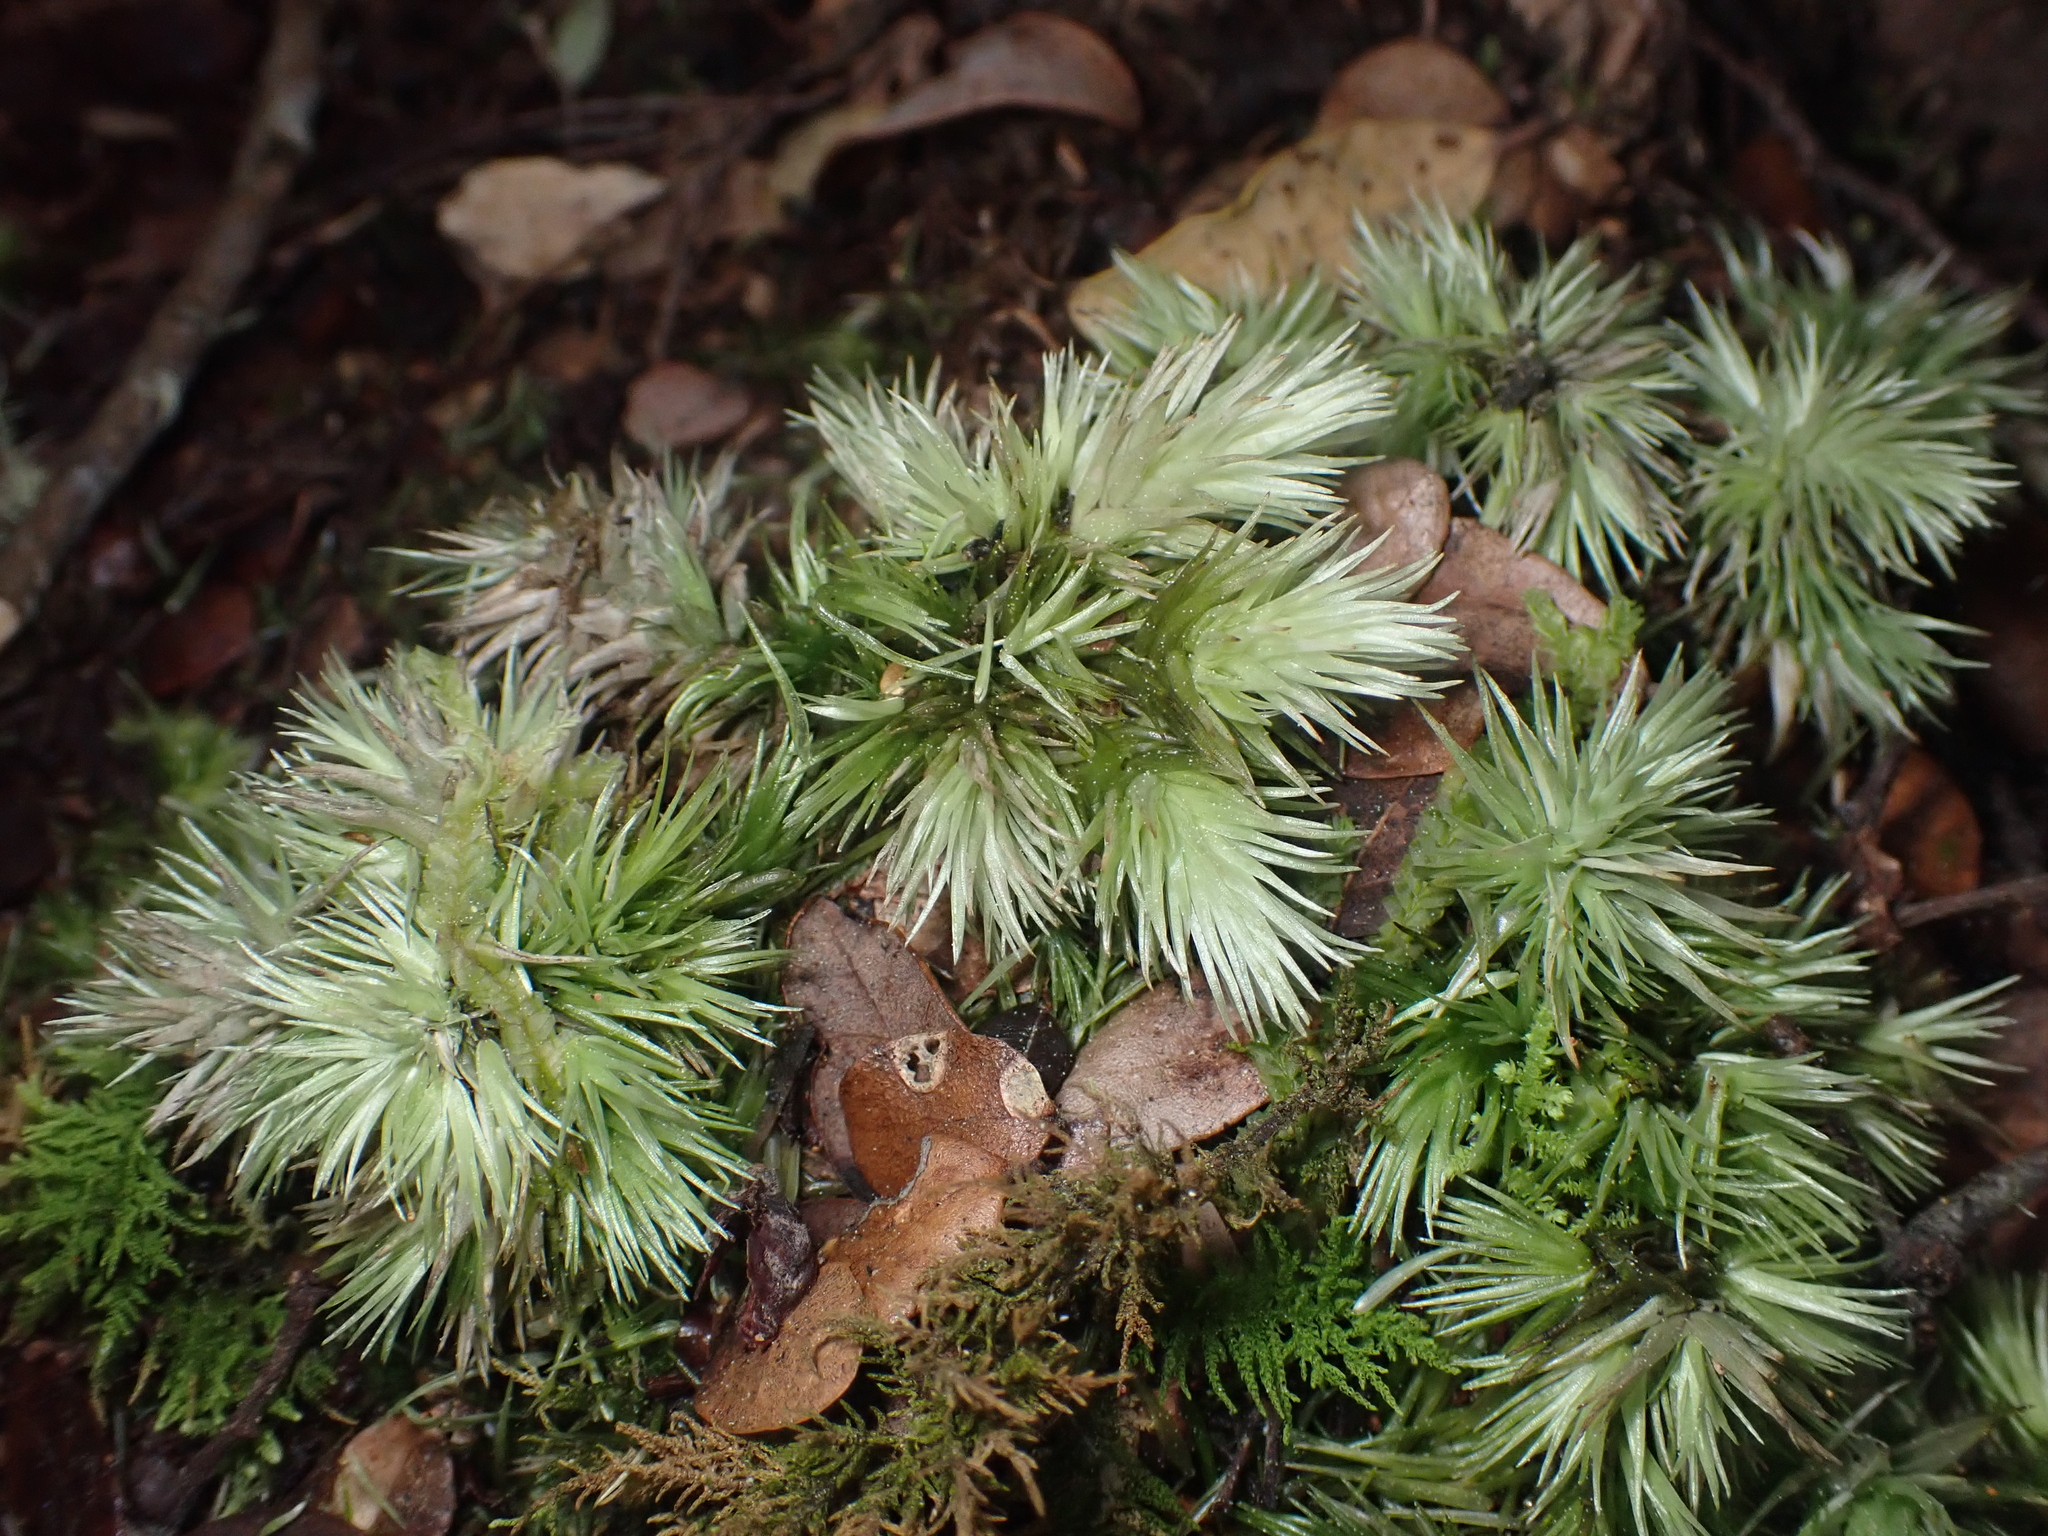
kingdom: Plantae
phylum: Bryophyta
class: Bryopsida
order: Dicranales
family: Leucobryaceae
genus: Leucobryum
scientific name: Leucobryum javense
